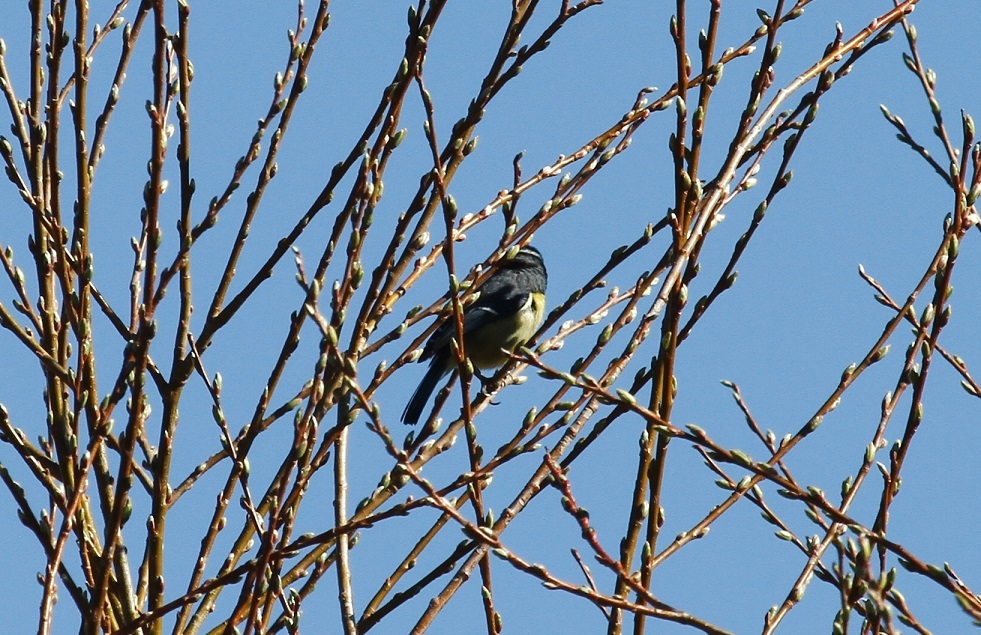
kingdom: Animalia
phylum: Chordata
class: Aves
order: Passeriformes
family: Paridae
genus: Cyanistes
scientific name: Cyanistes teneriffae
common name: African blue tit
